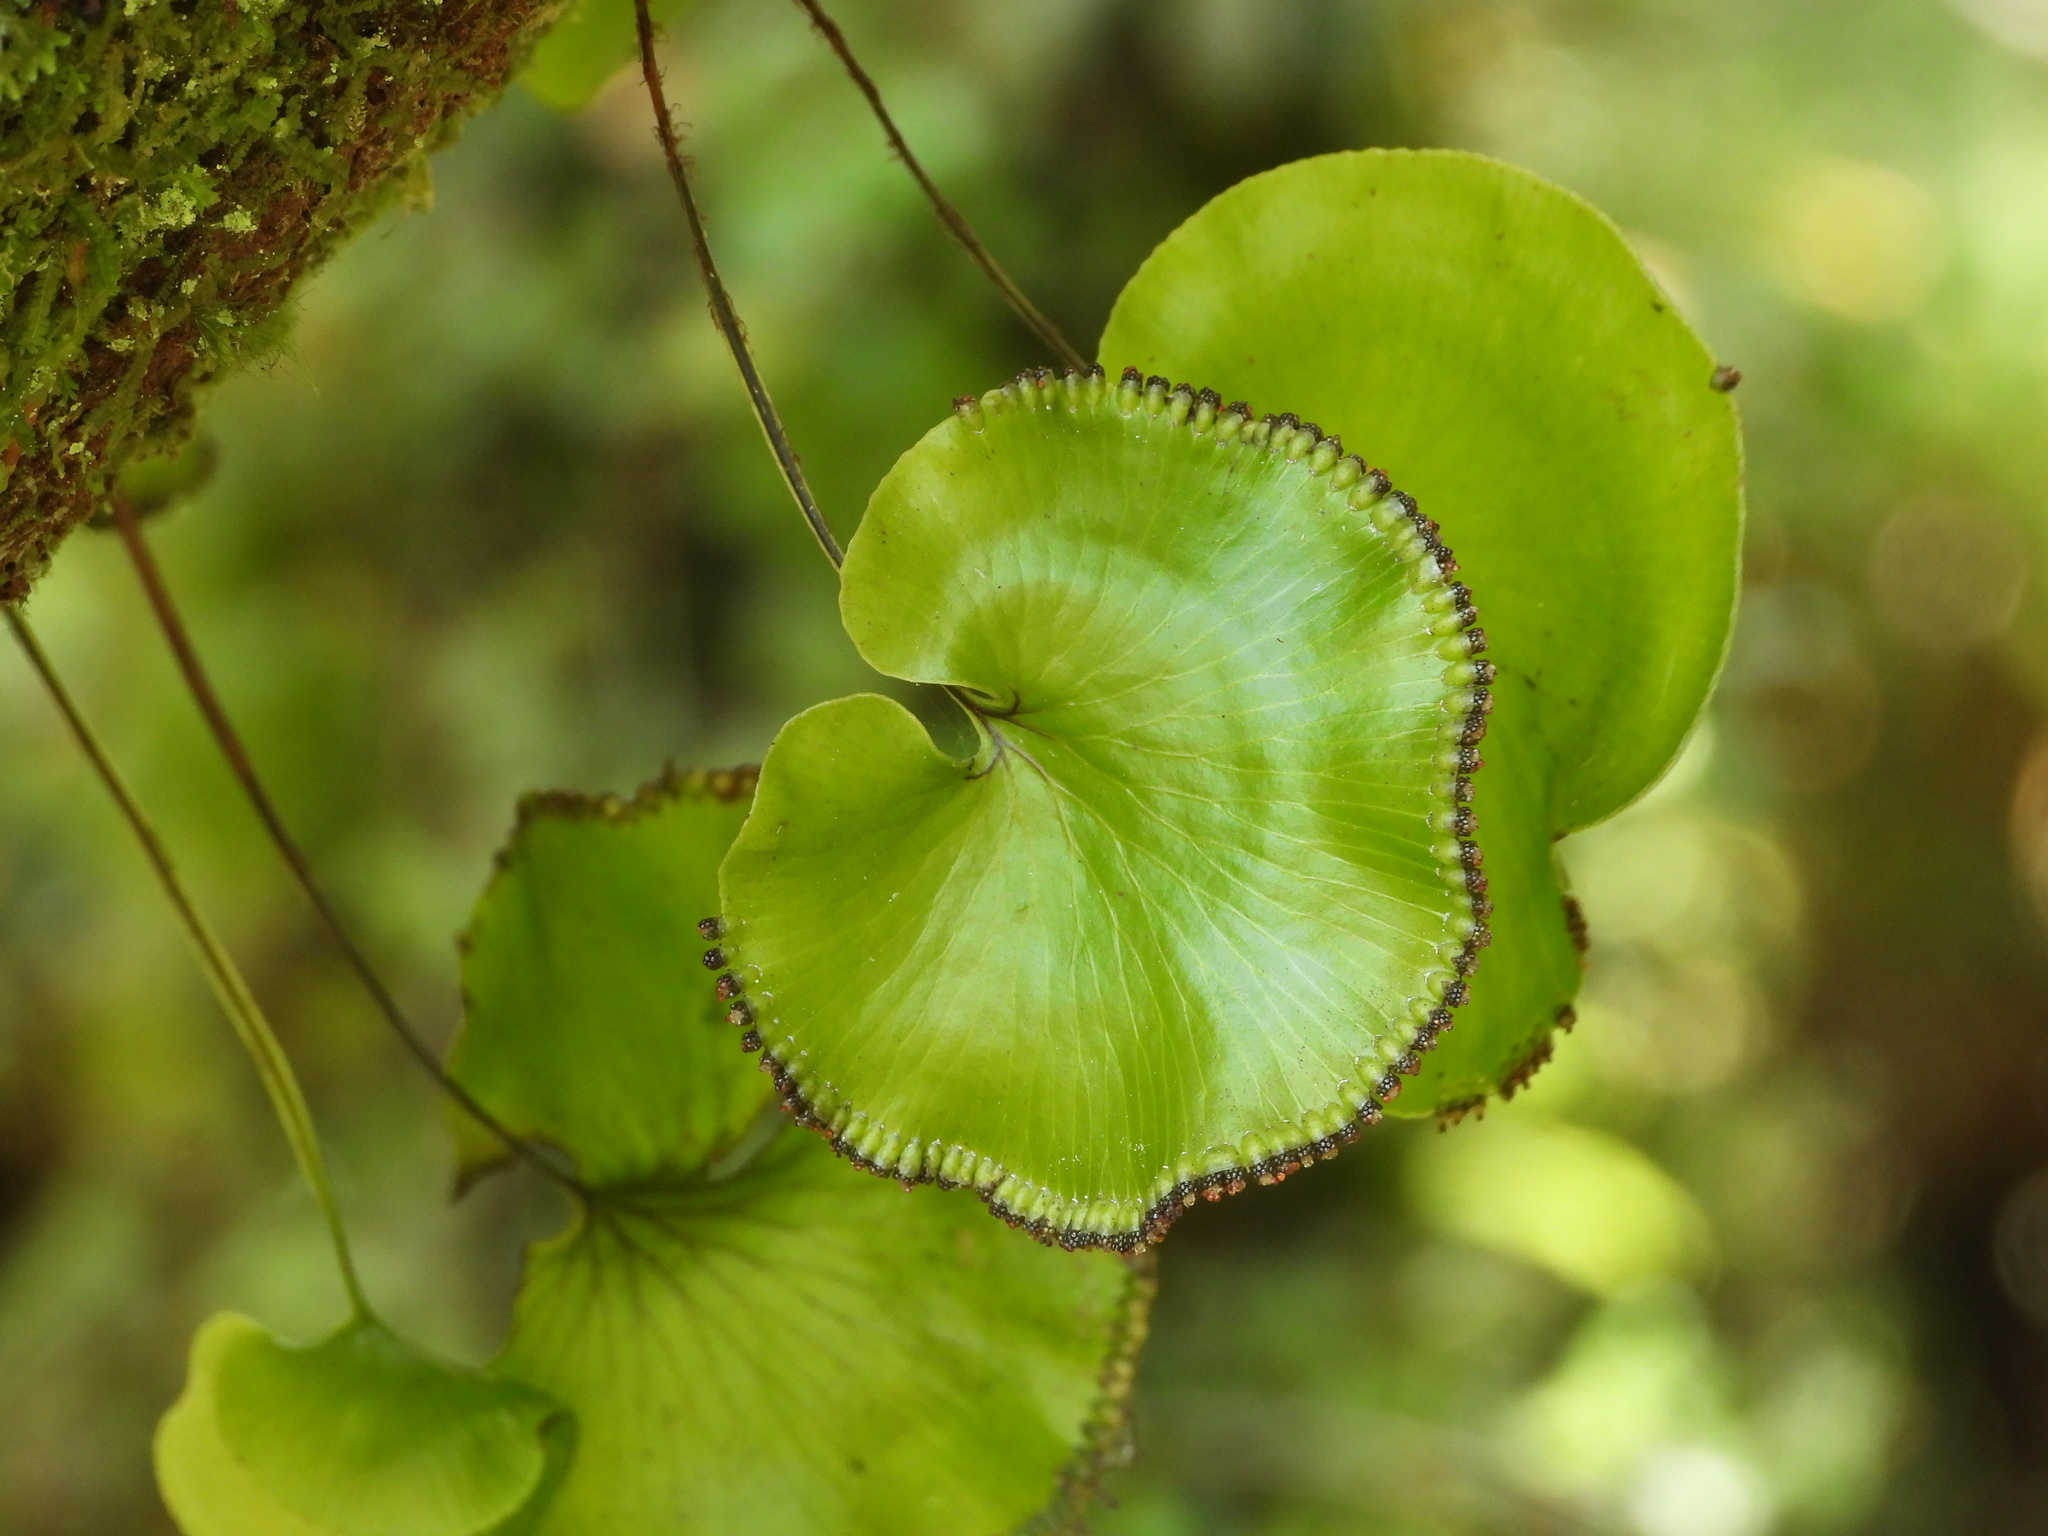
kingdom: Plantae
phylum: Tracheophyta
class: Polypodiopsida
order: Hymenophyllales
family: Hymenophyllaceae
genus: Hymenophyllum
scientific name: Hymenophyllum nephrophyllum
